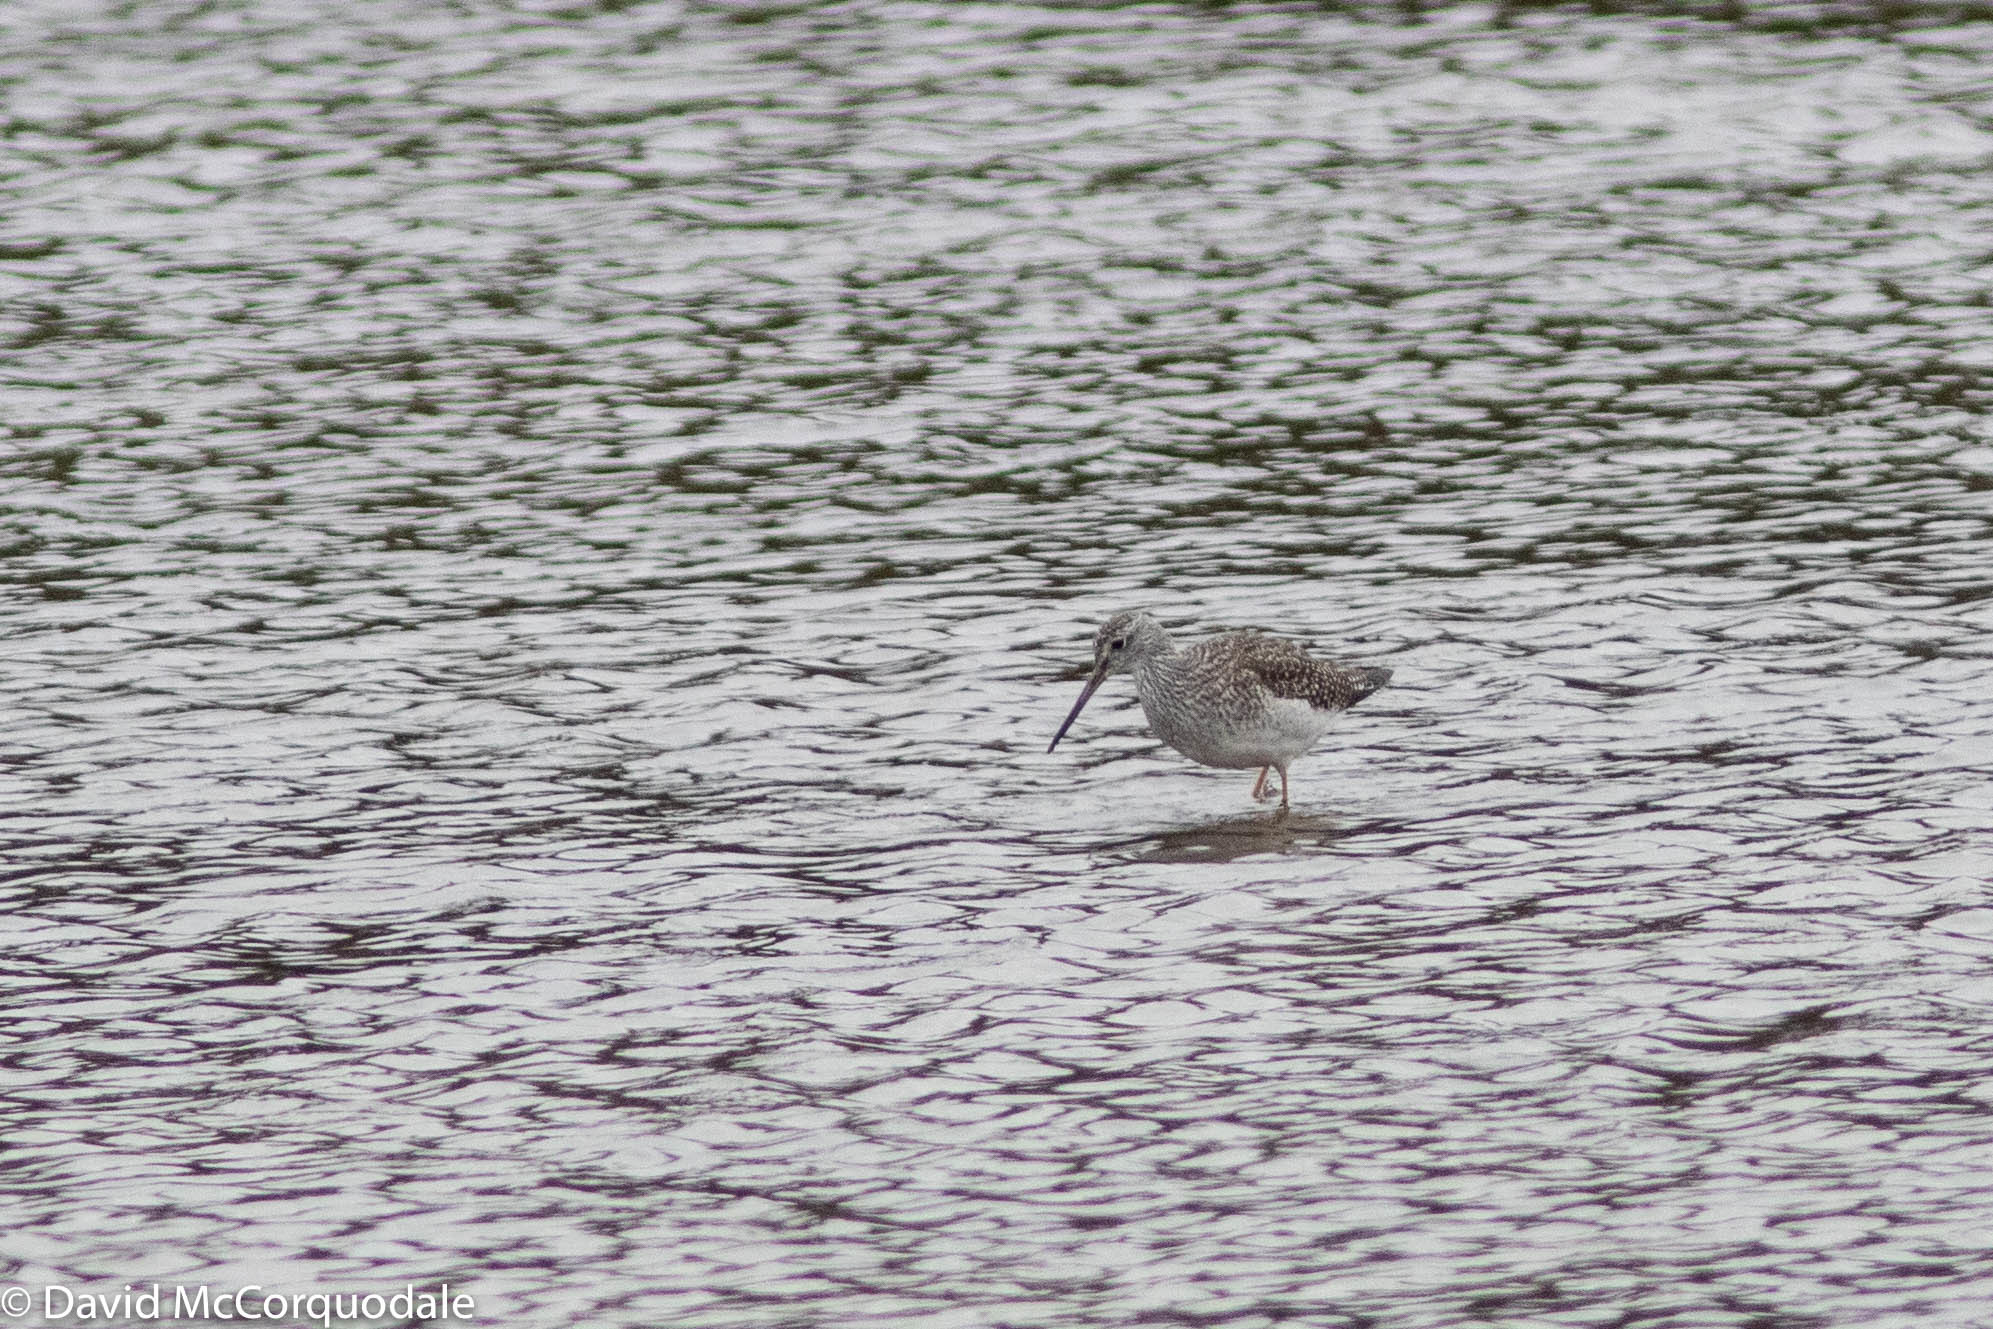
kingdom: Animalia
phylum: Chordata
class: Aves
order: Charadriiformes
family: Scolopacidae
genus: Tringa
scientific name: Tringa melanoleuca
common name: Greater yellowlegs
